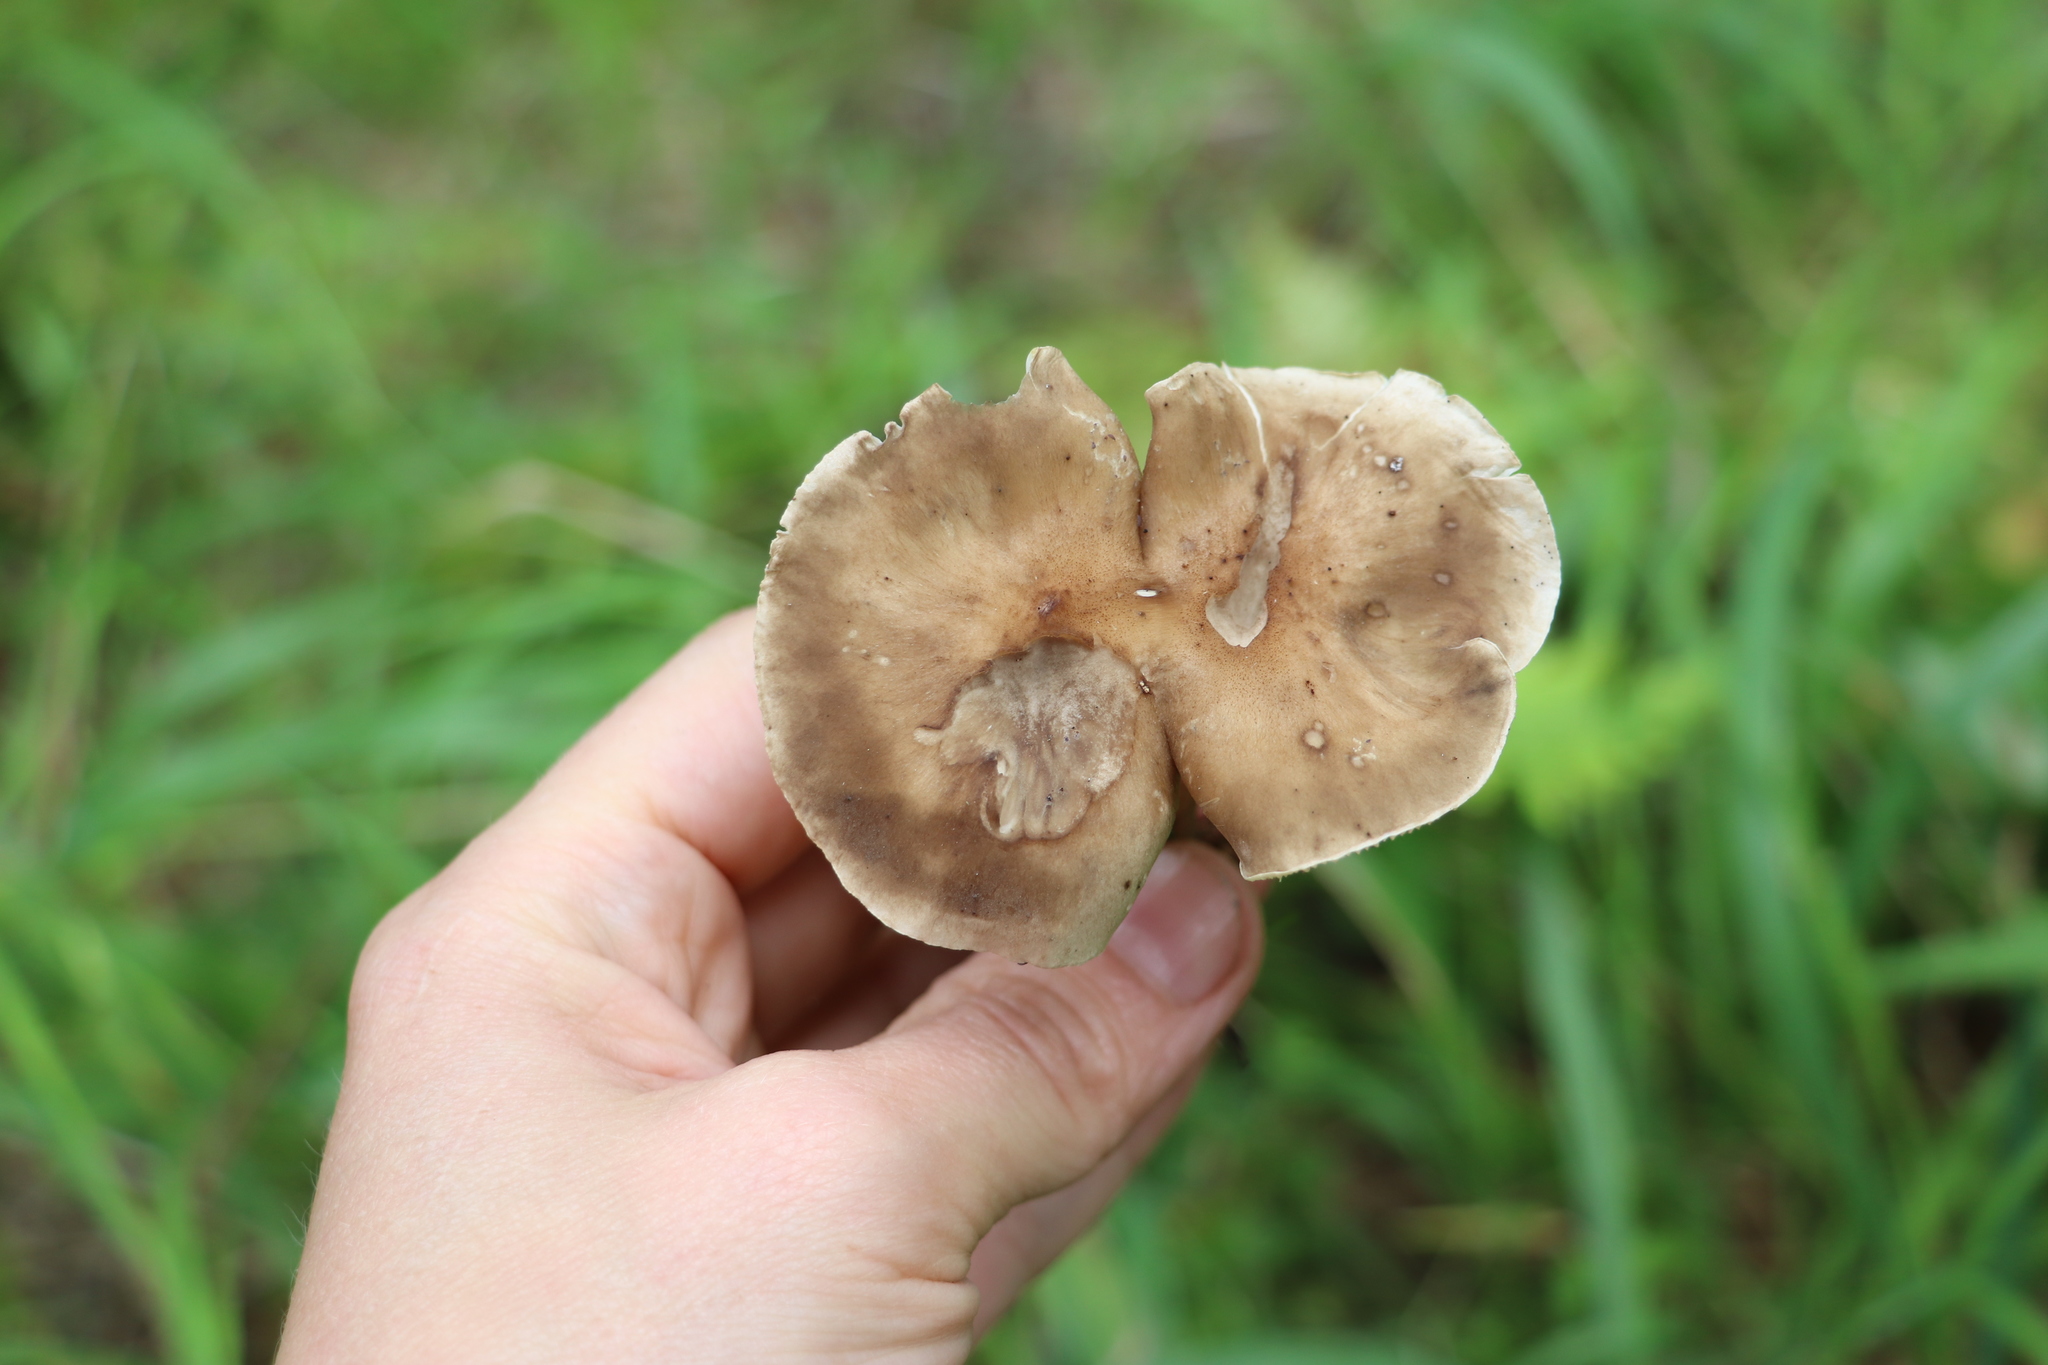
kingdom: Fungi
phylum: Basidiomycota
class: Agaricomycetes
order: Agaricales
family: Hygrophoraceae
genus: Ampulloclitocybe
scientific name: Ampulloclitocybe clavipes
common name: Club foot
